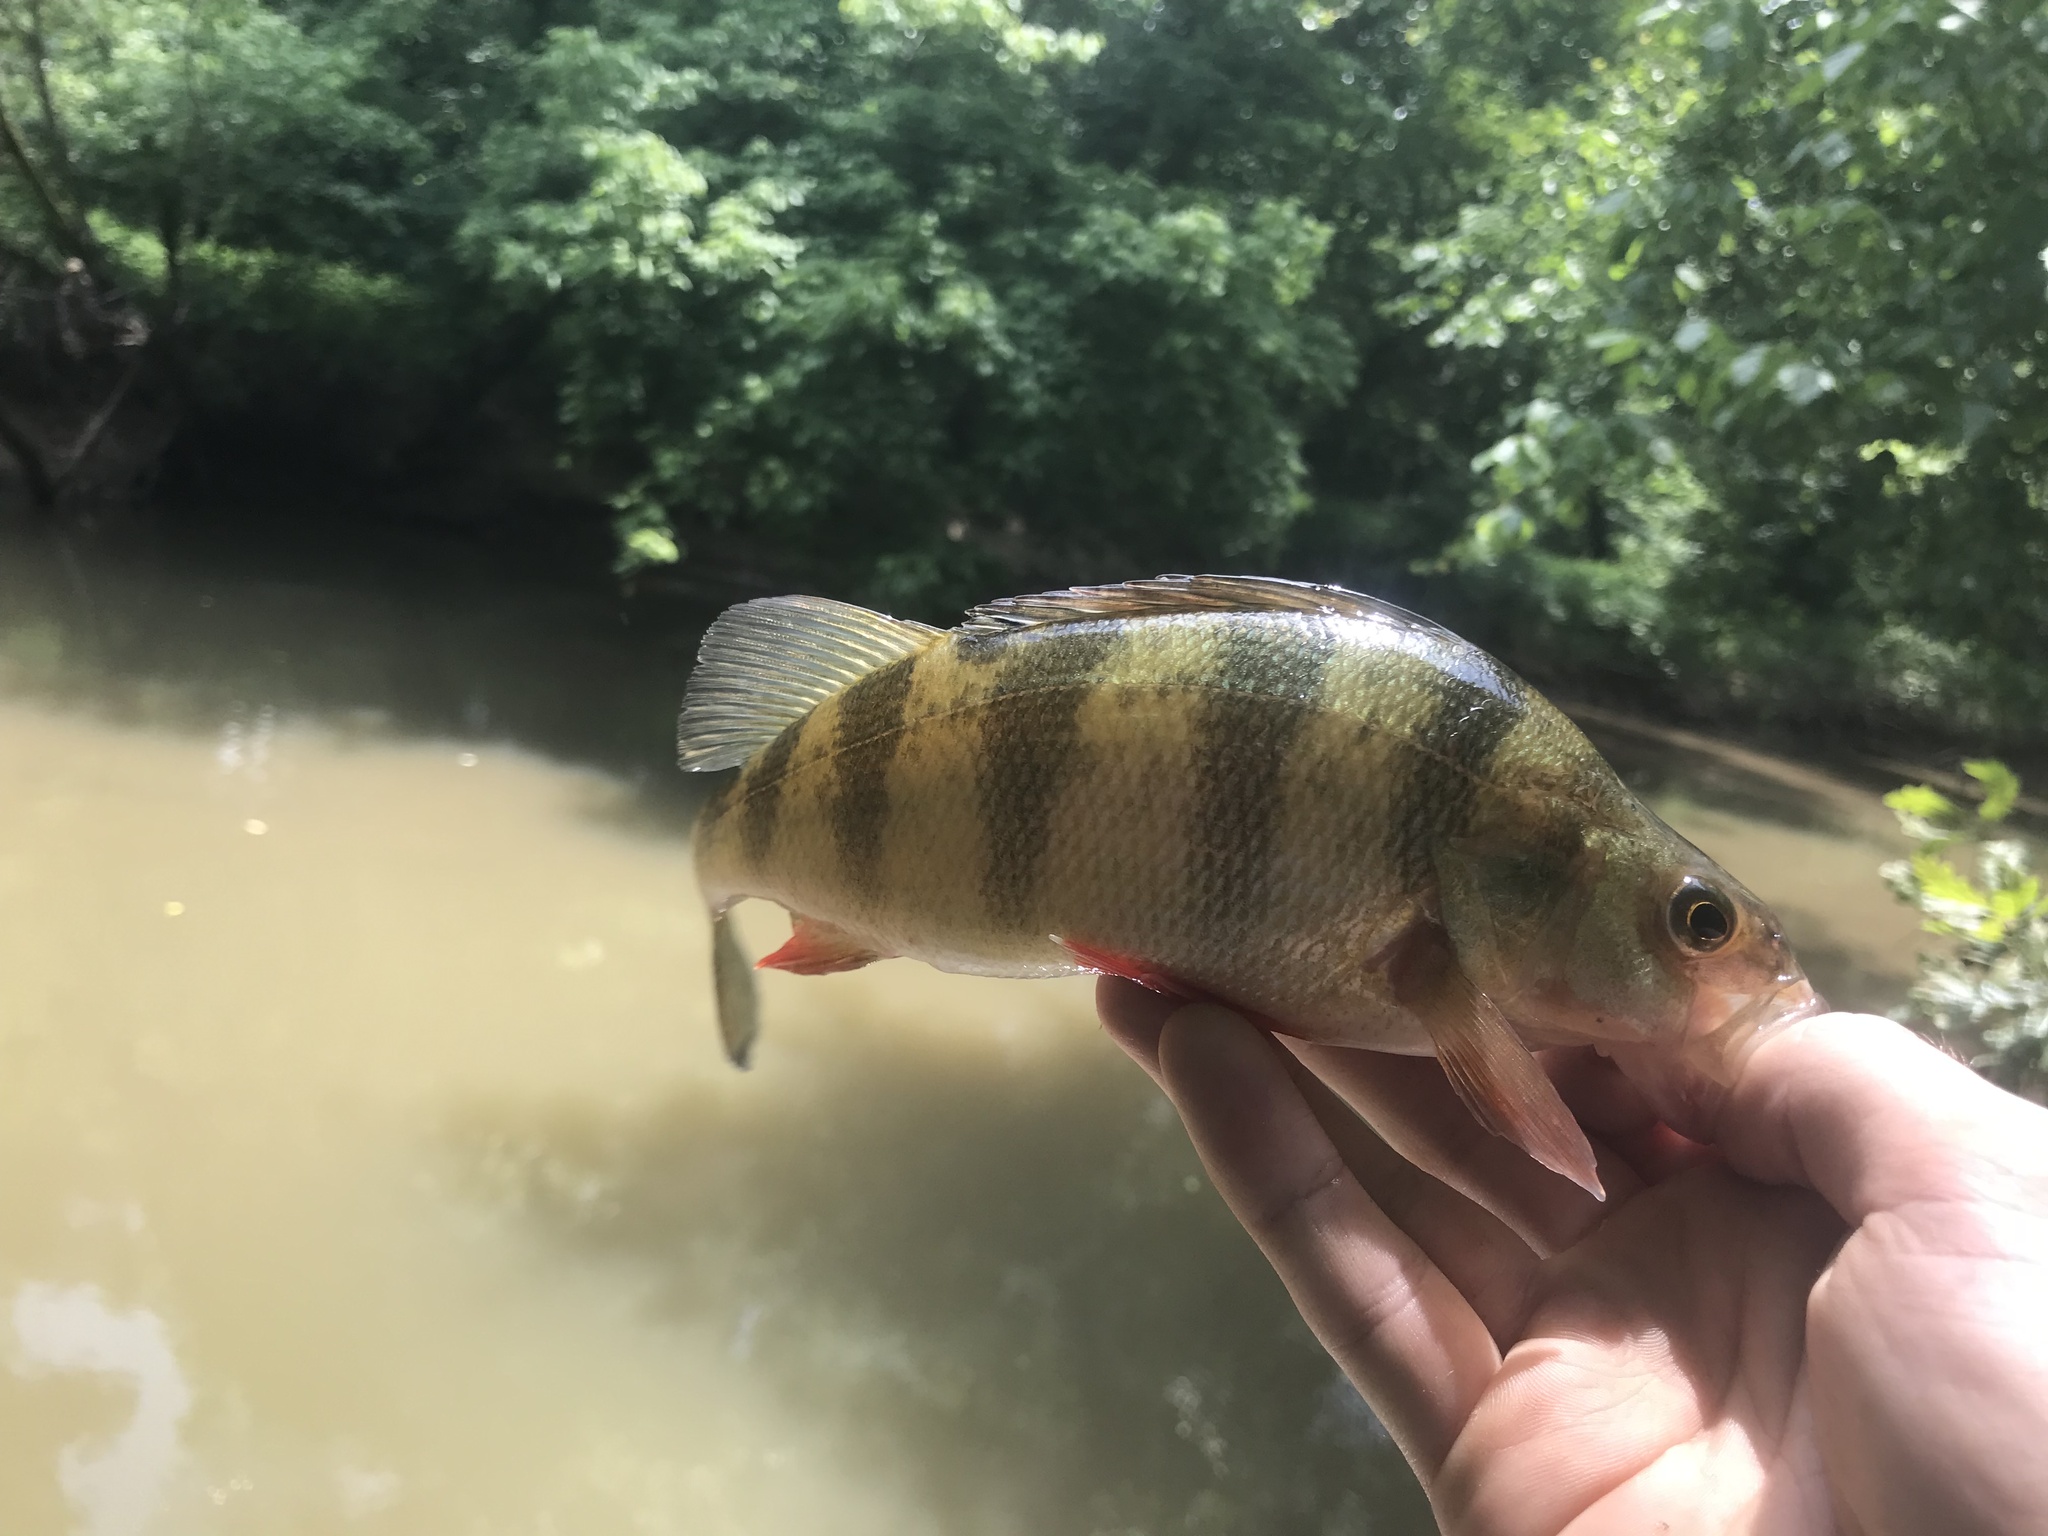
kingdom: Animalia
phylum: Chordata
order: Perciformes
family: Percidae
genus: Perca
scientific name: Perca flavescens
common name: Yellow perch
